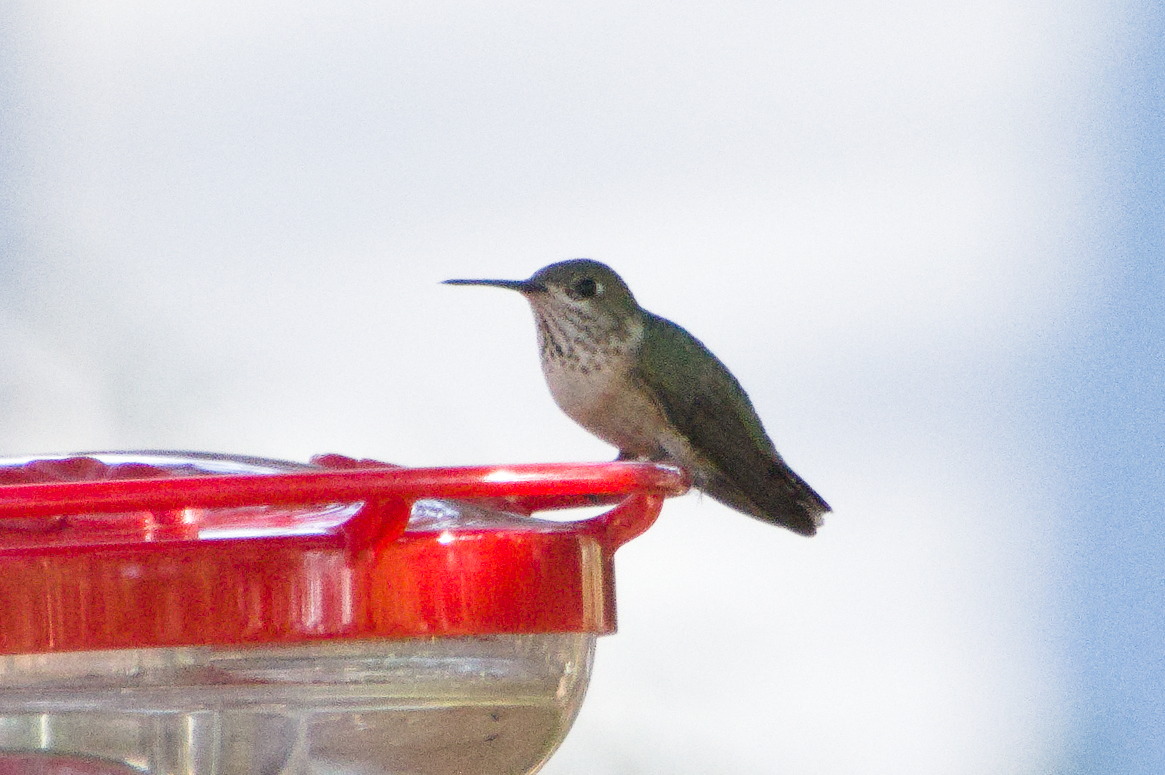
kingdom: Animalia
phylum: Chordata
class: Aves
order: Apodiformes
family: Trochilidae
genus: Selasphorus
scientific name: Selasphorus calliope
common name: Calliope hummingbird
